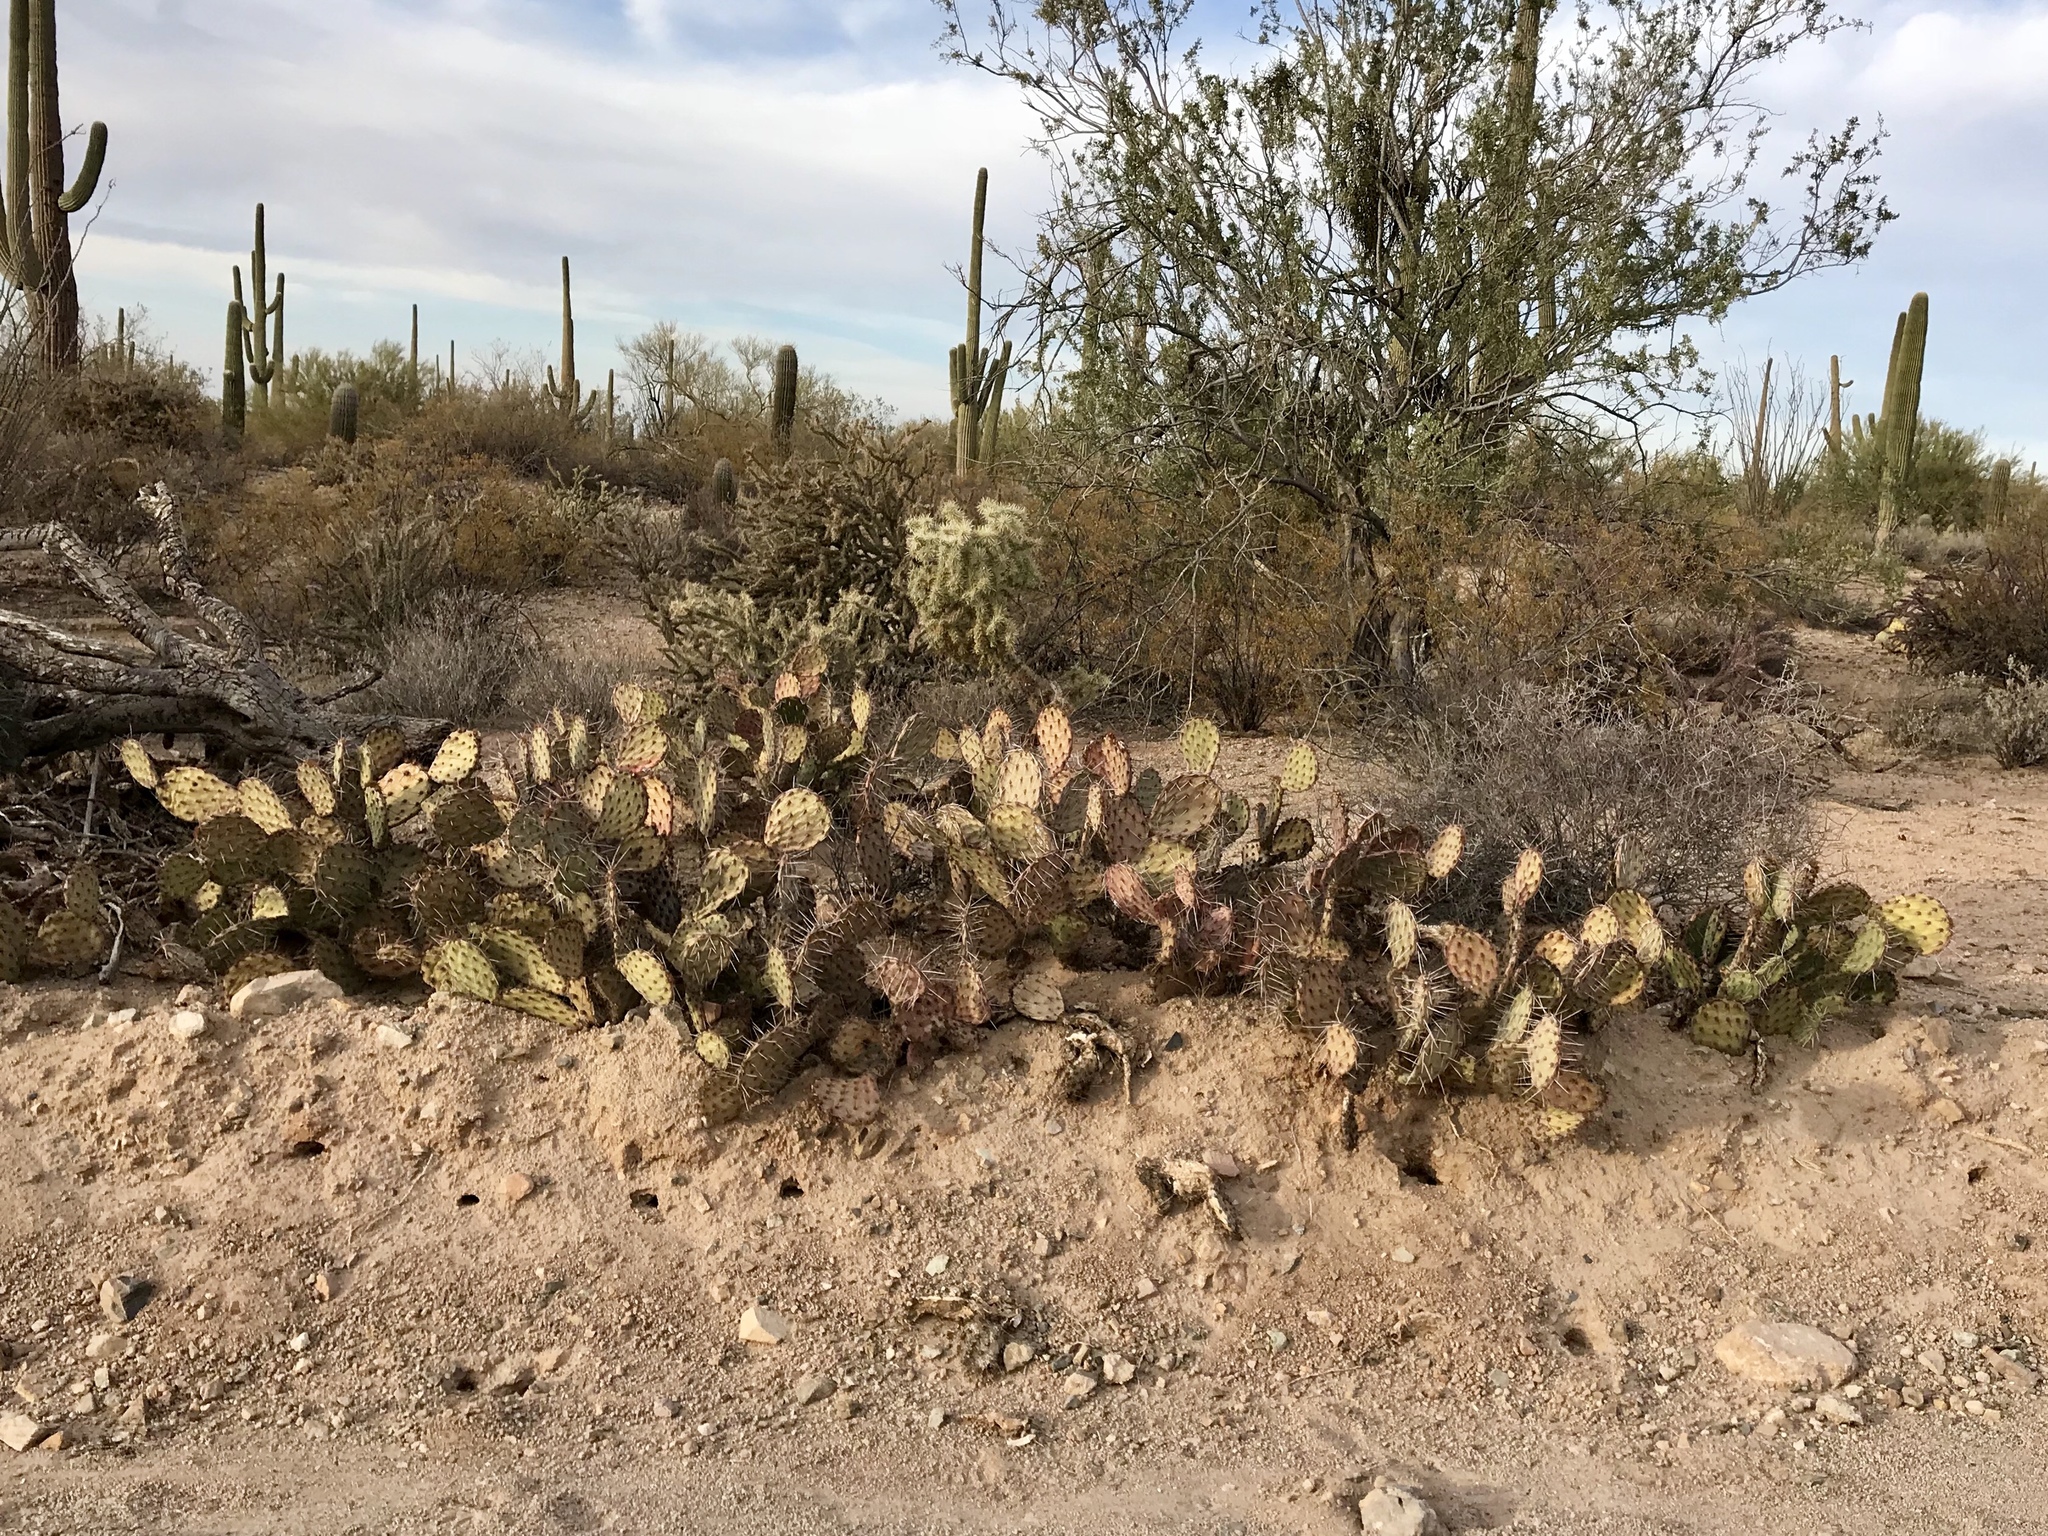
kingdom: Plantae
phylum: Tracheophyta
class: Magnoliopsida
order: Caryophyllales
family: Cactaceae
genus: Opuntia
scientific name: Opuntia phaeacantha
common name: New mexico prickly-pear
